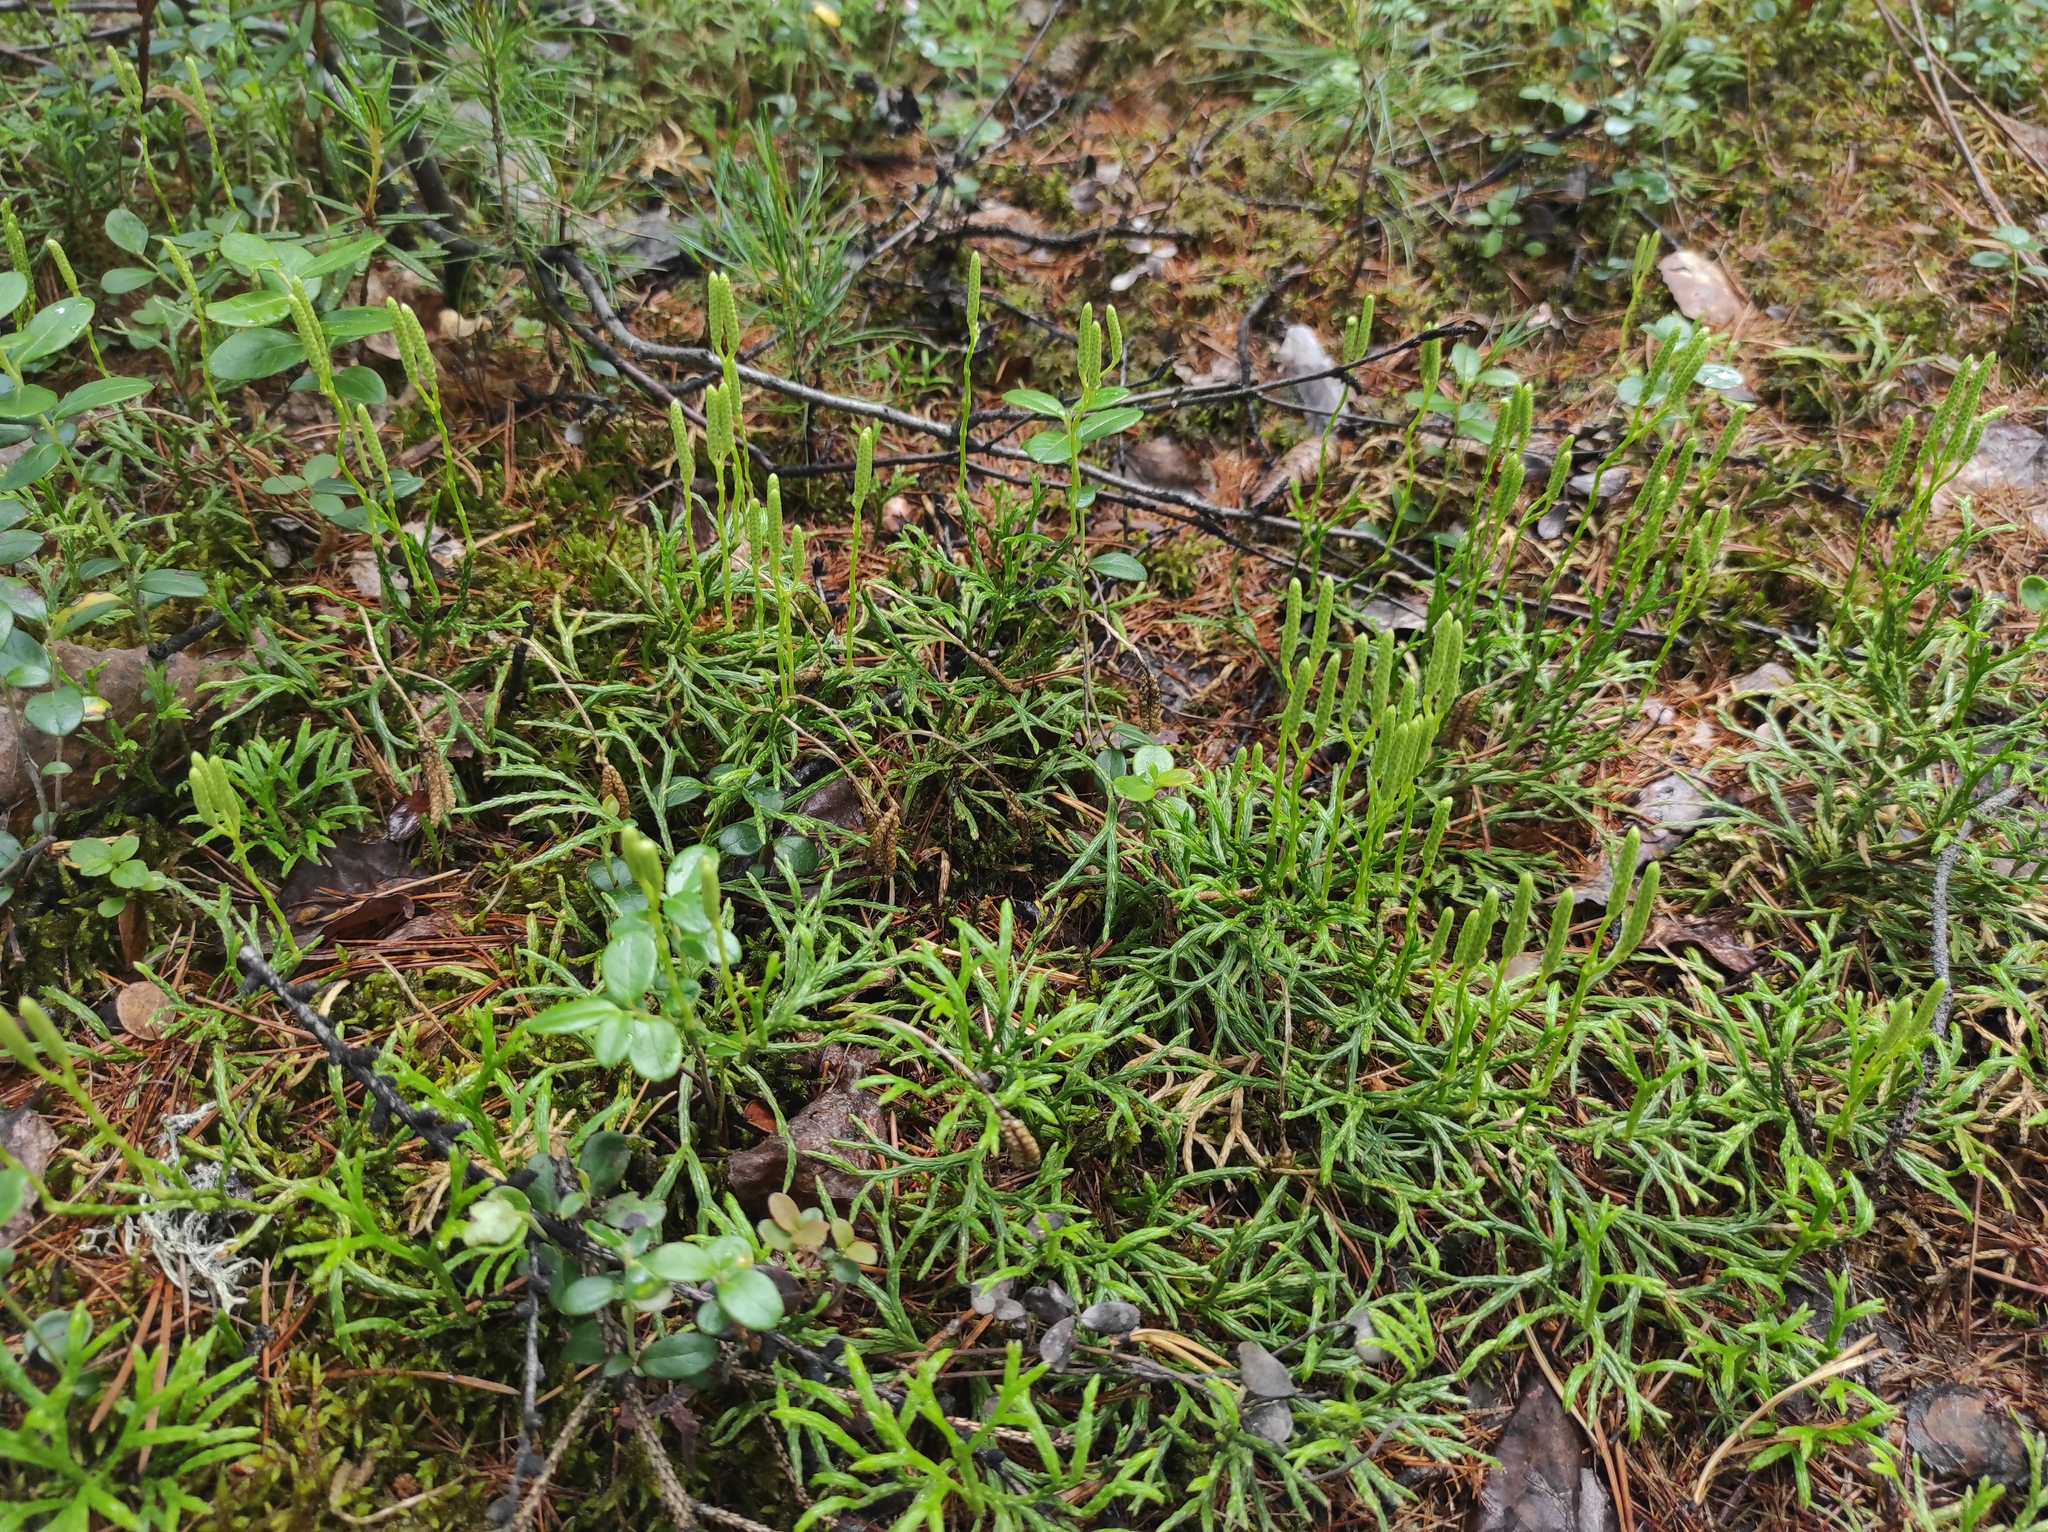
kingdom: Plantae
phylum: Tracheophyta
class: Lycopodiopsida
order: Lycopodiales
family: Lycopodiaceae
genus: Diphasiastrum
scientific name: Diphasiastrum complanatum
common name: Northern running-pine
